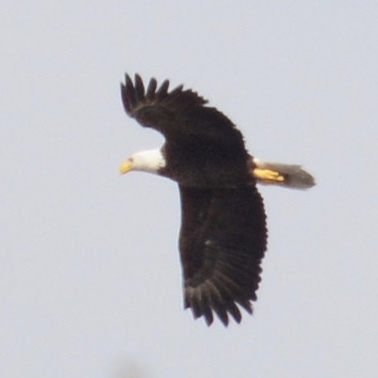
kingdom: Animalia
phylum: Chordata
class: Aves
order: Accipitriformes
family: Accipitridae
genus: Haliaeetus
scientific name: Haliaeetus leucocephalus
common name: Bald eagle
